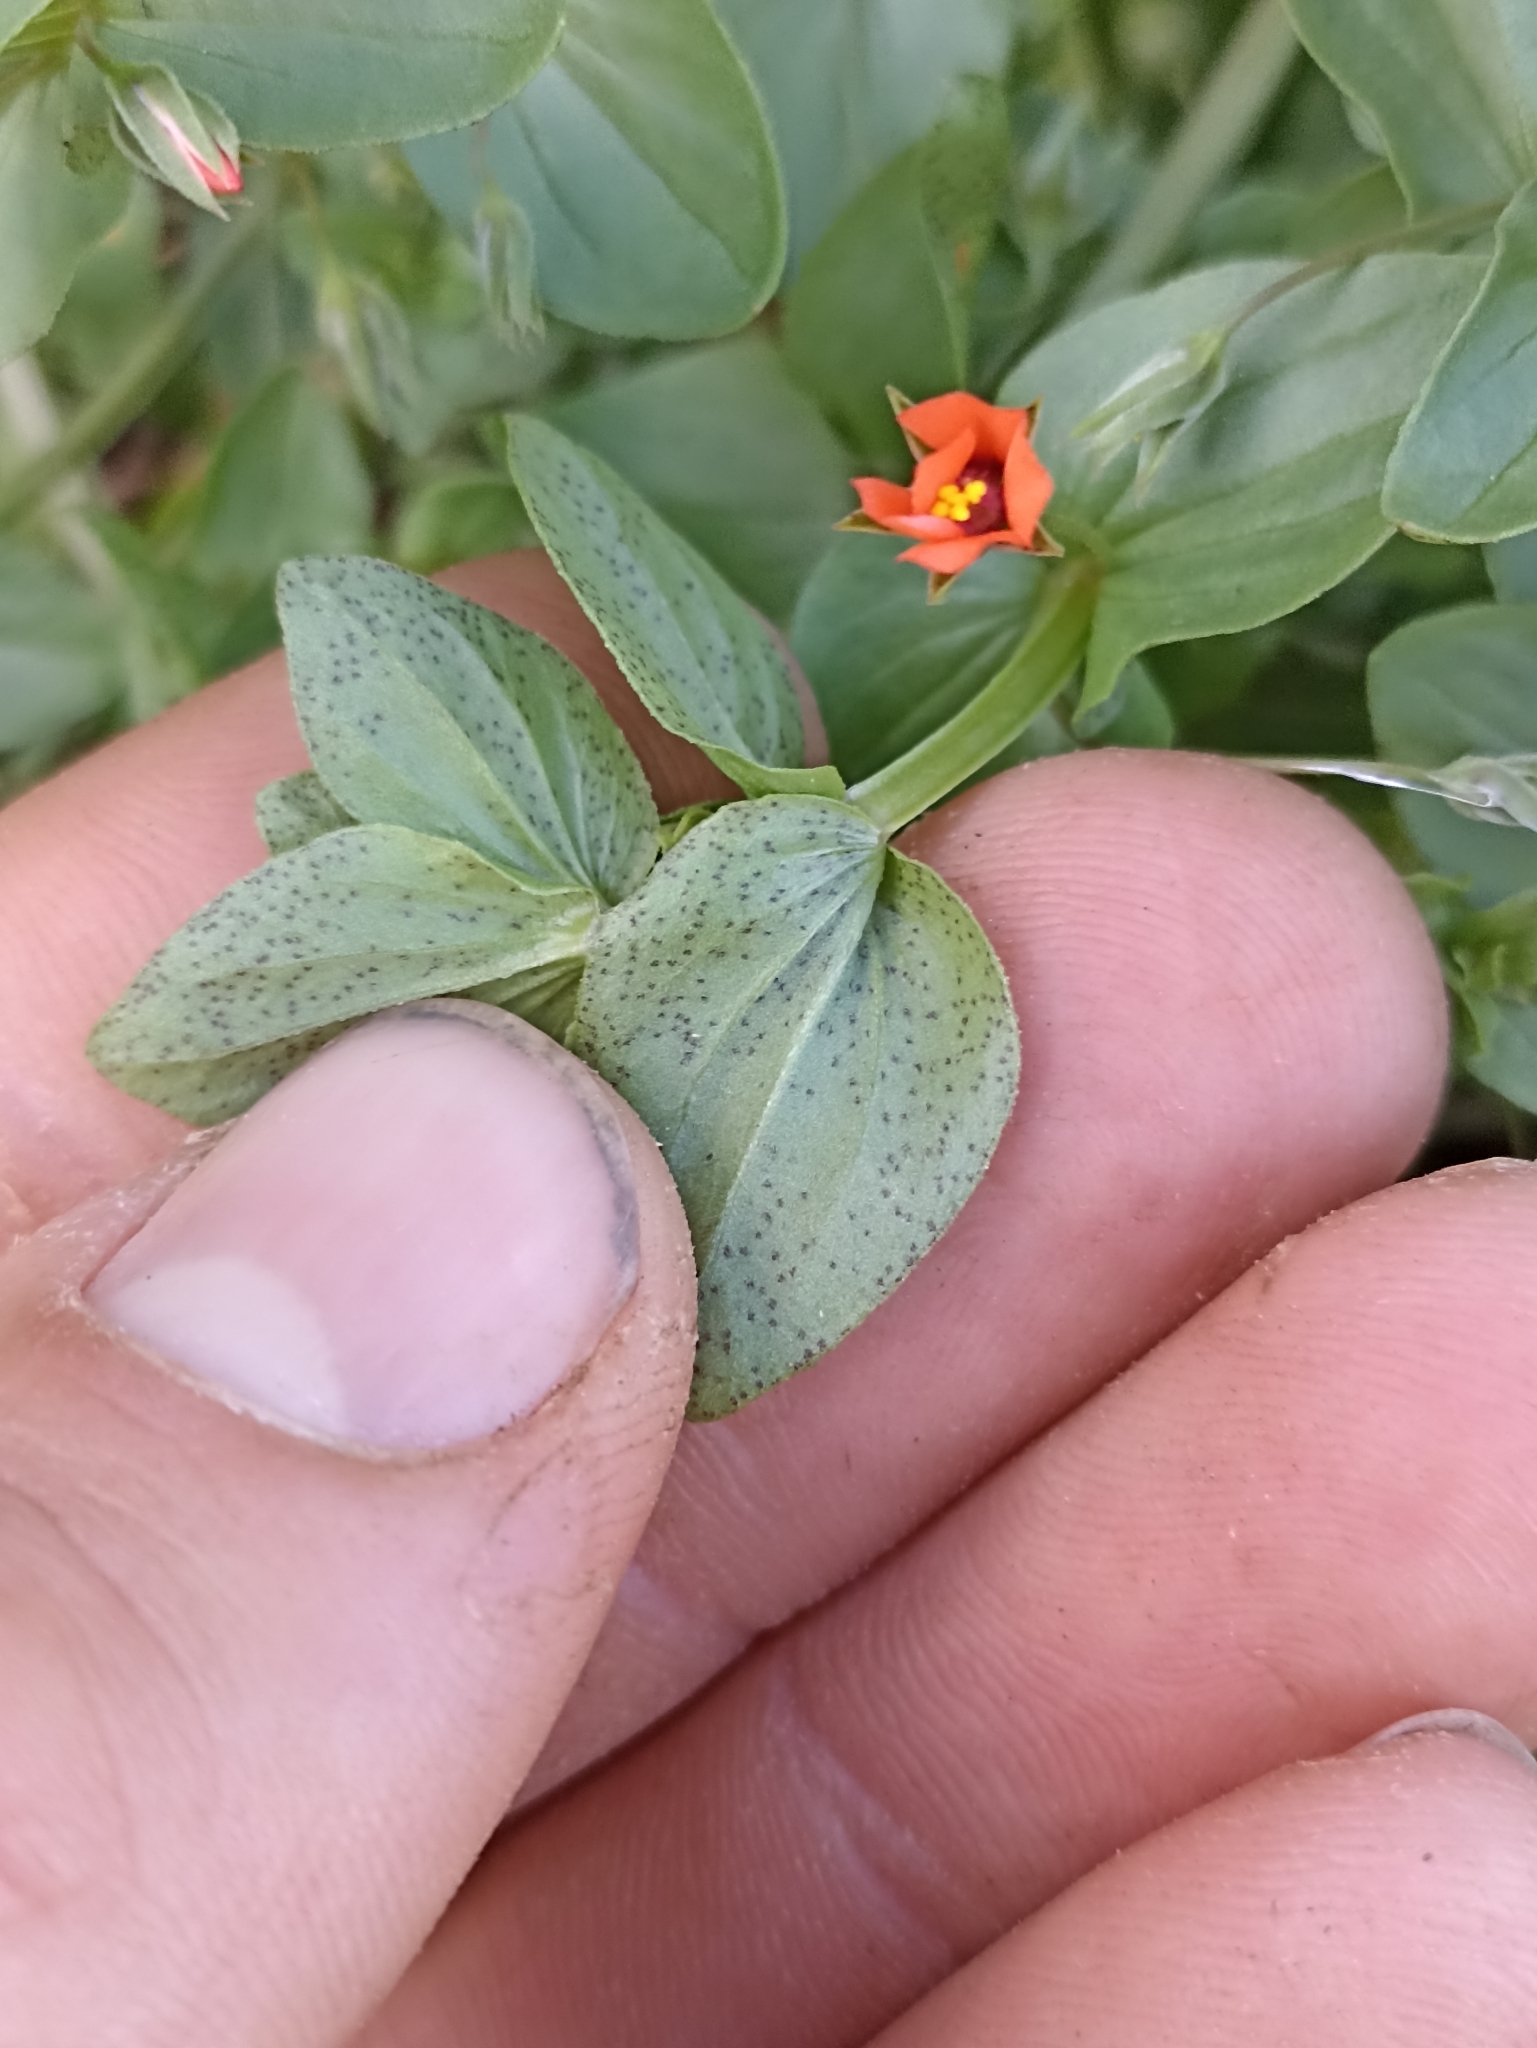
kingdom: Plantae
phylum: Tracheophyta
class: Magnoliopsida
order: Ericales
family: Primulaceae
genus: Lysimachia
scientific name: Lysimachia arvensis
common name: Scarlet pimpernel
